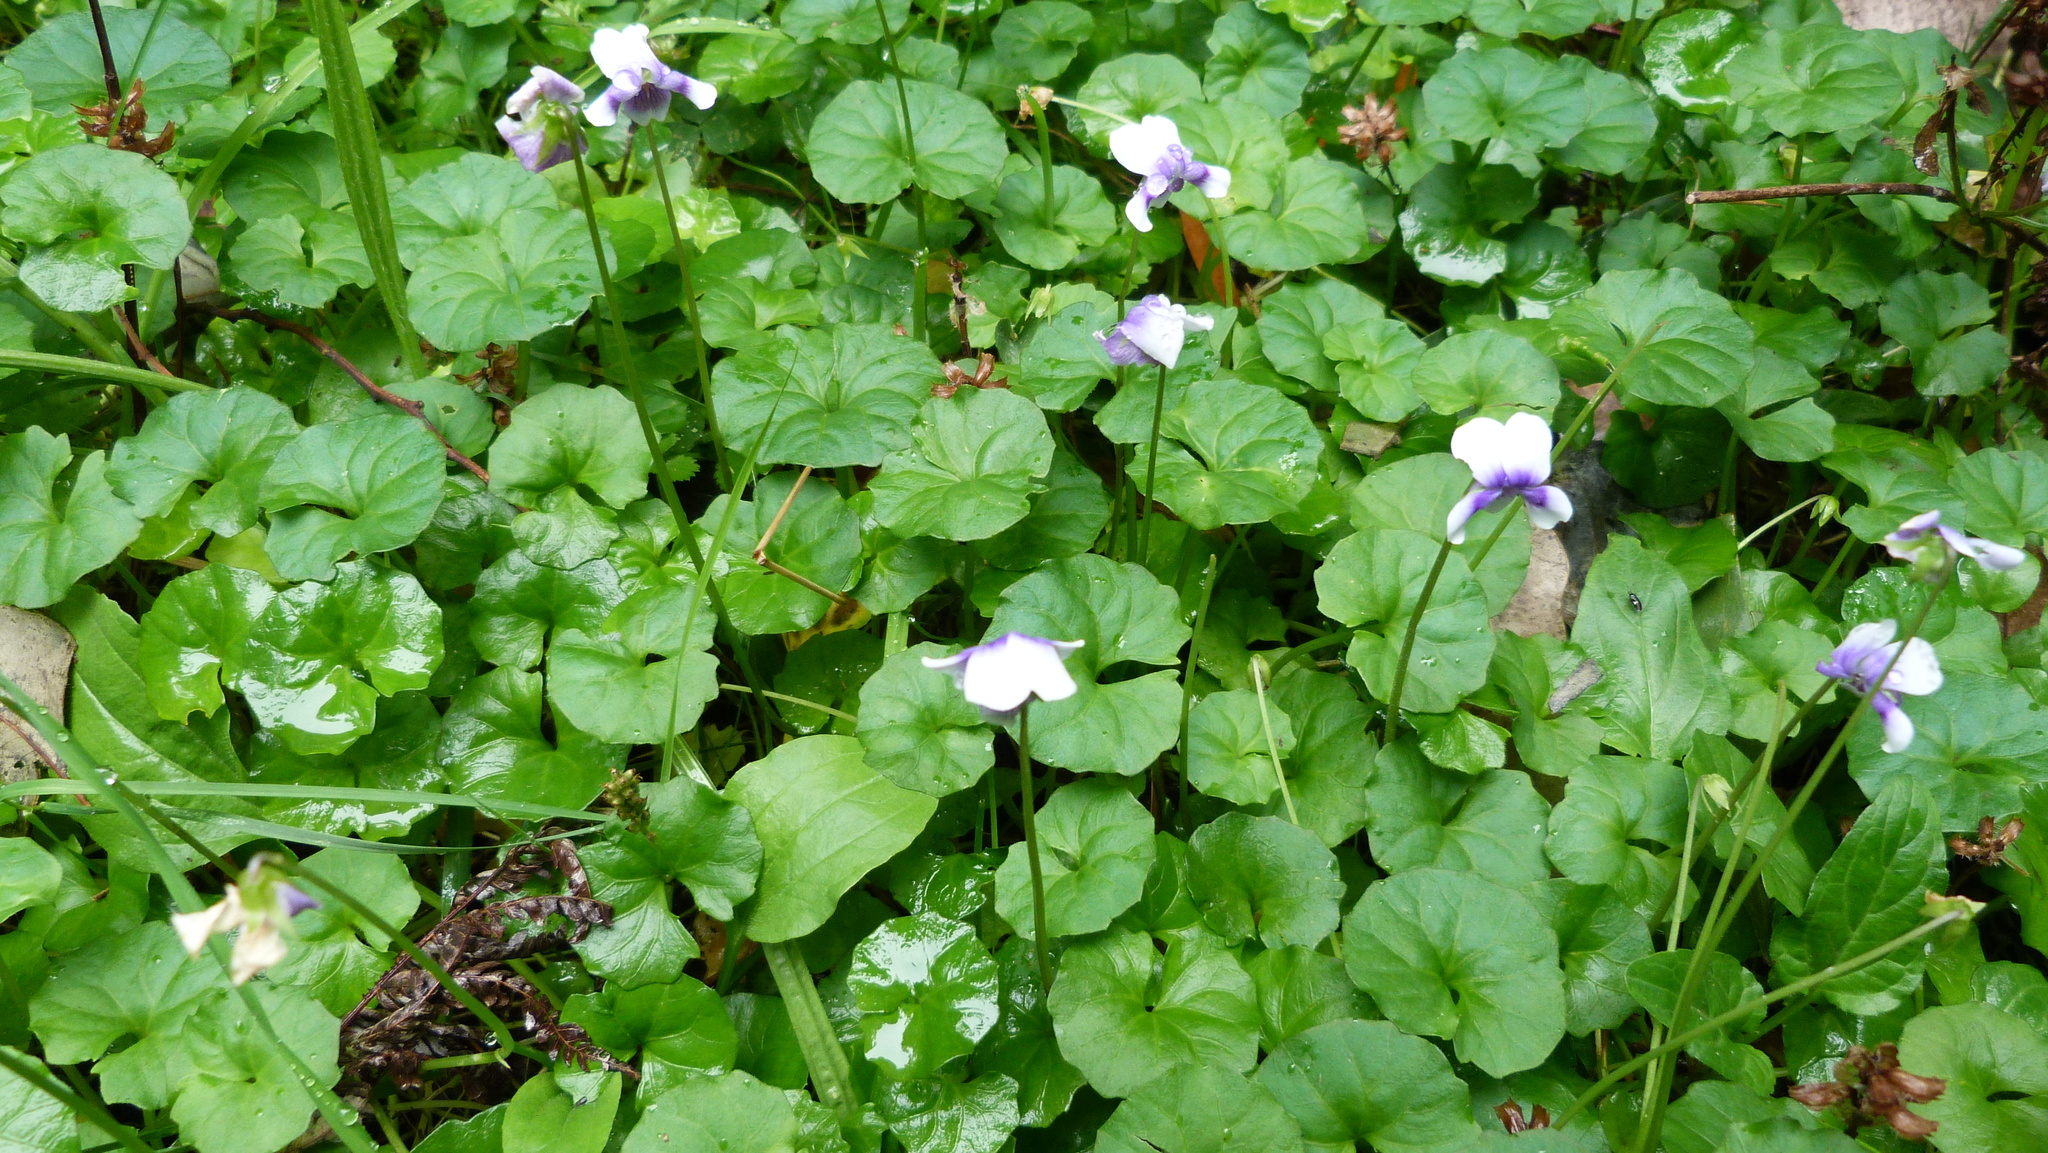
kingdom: Plantae
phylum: Tracheophyta
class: Magnoliopsida
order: Malpighiales
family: Violaceae
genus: Viola
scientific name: Viola banksii
